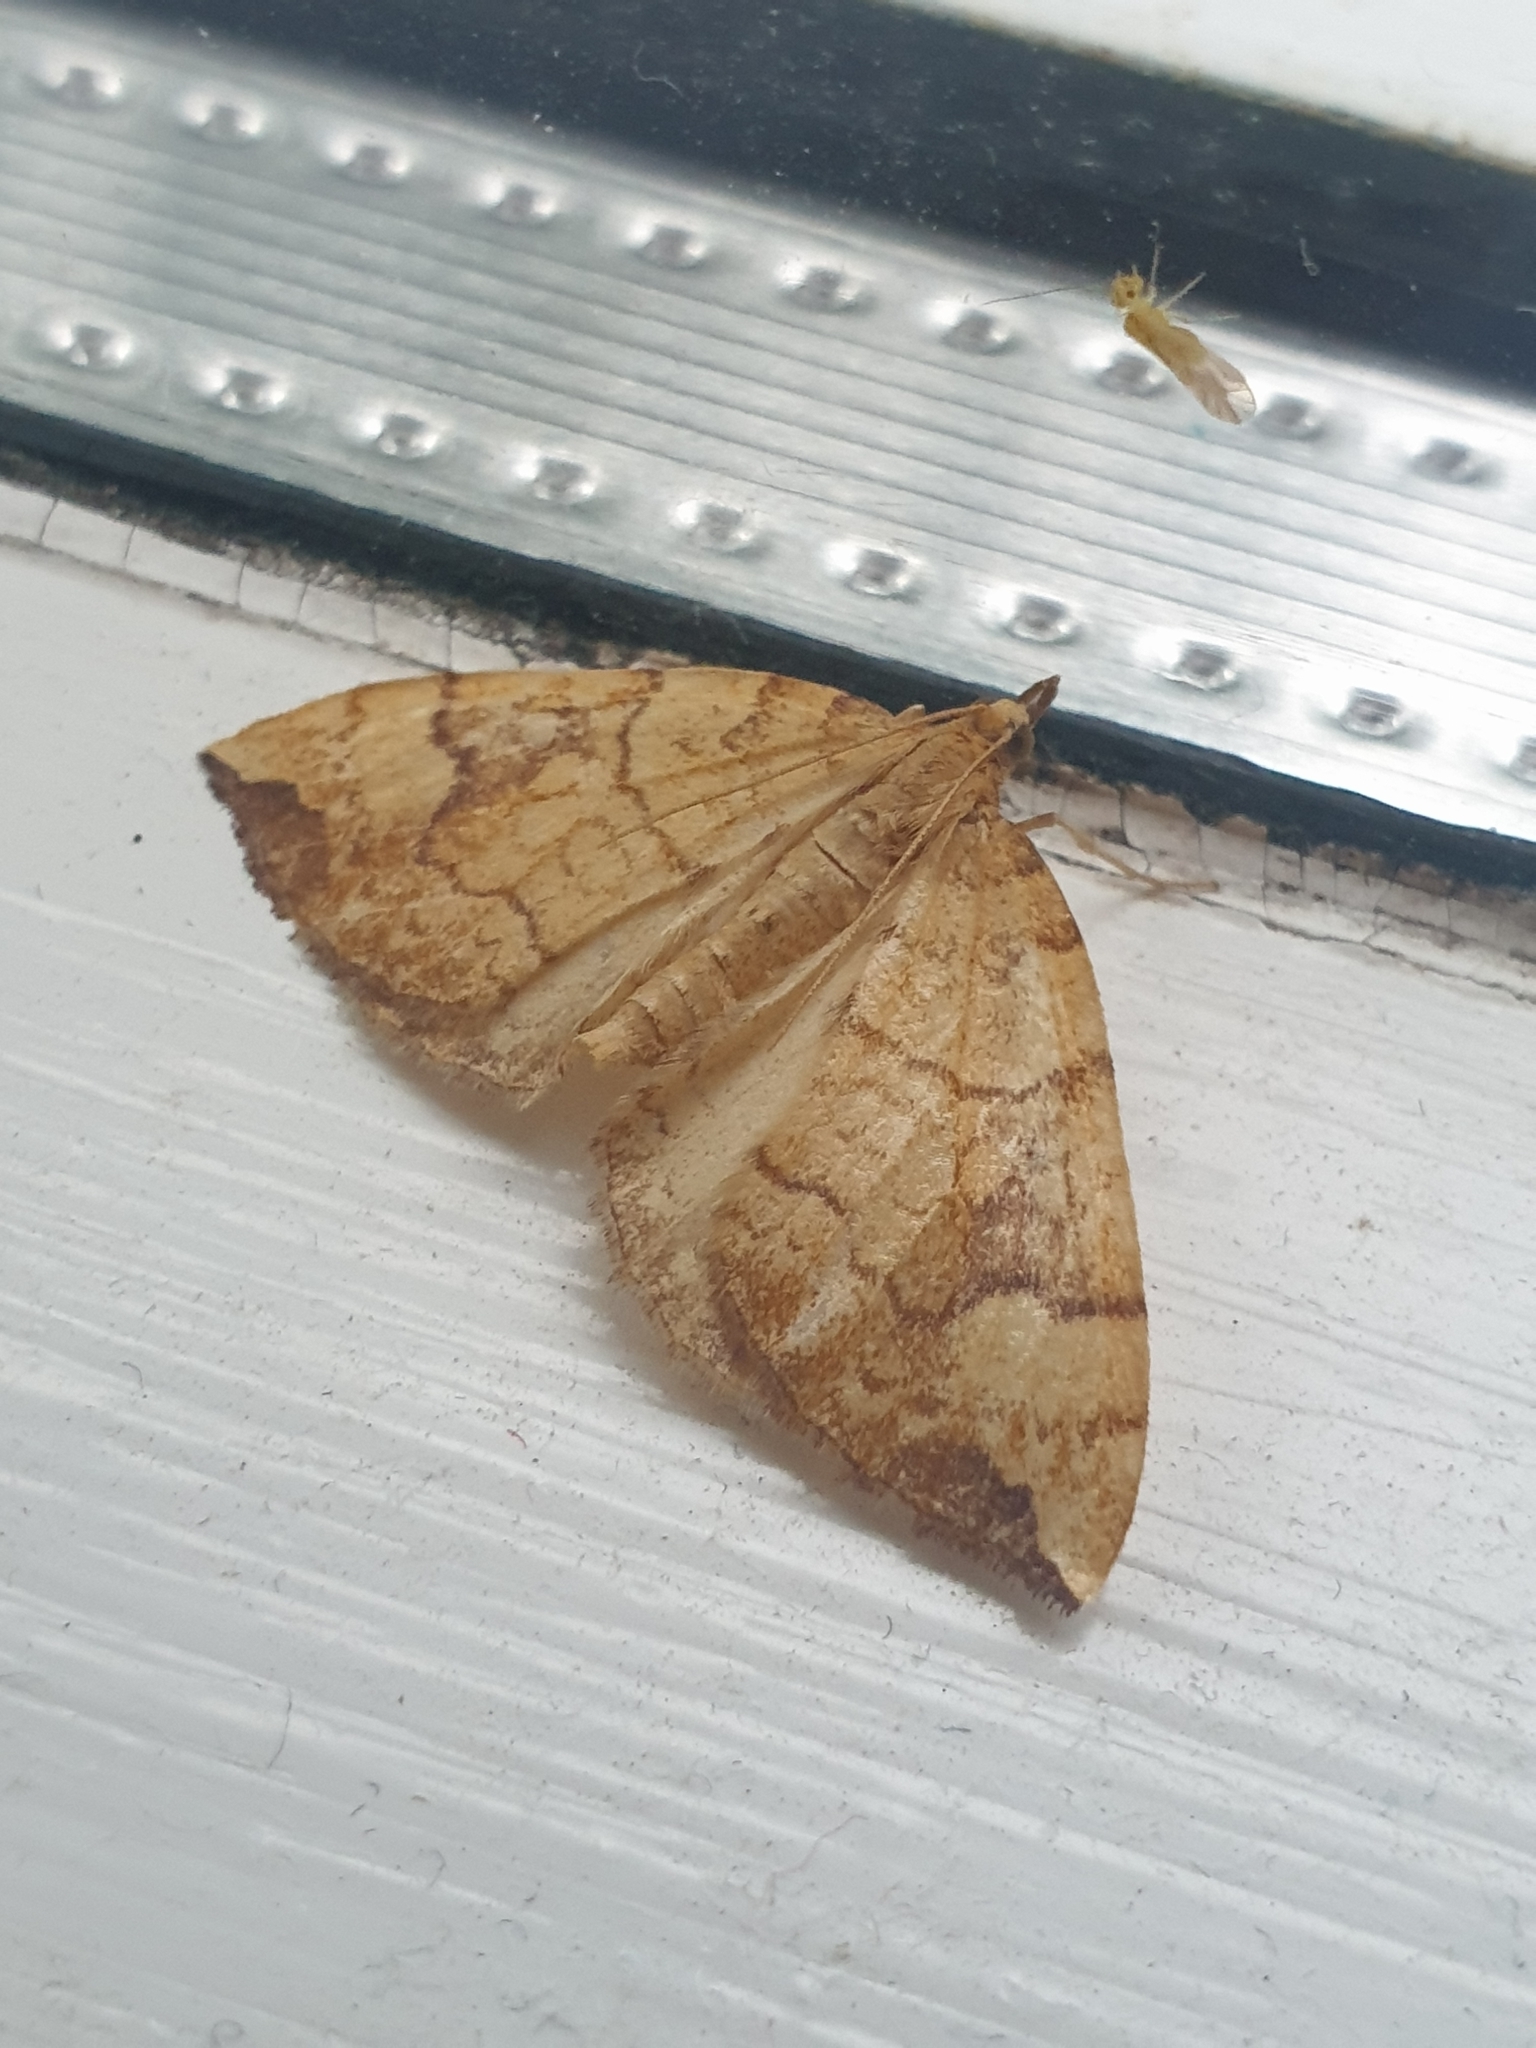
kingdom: Animalia
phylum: Arthropoda
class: Insecta
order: Lepidoptera
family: Geometridae
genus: Eulithis
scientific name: Eulithis populata
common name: Northern spinach
